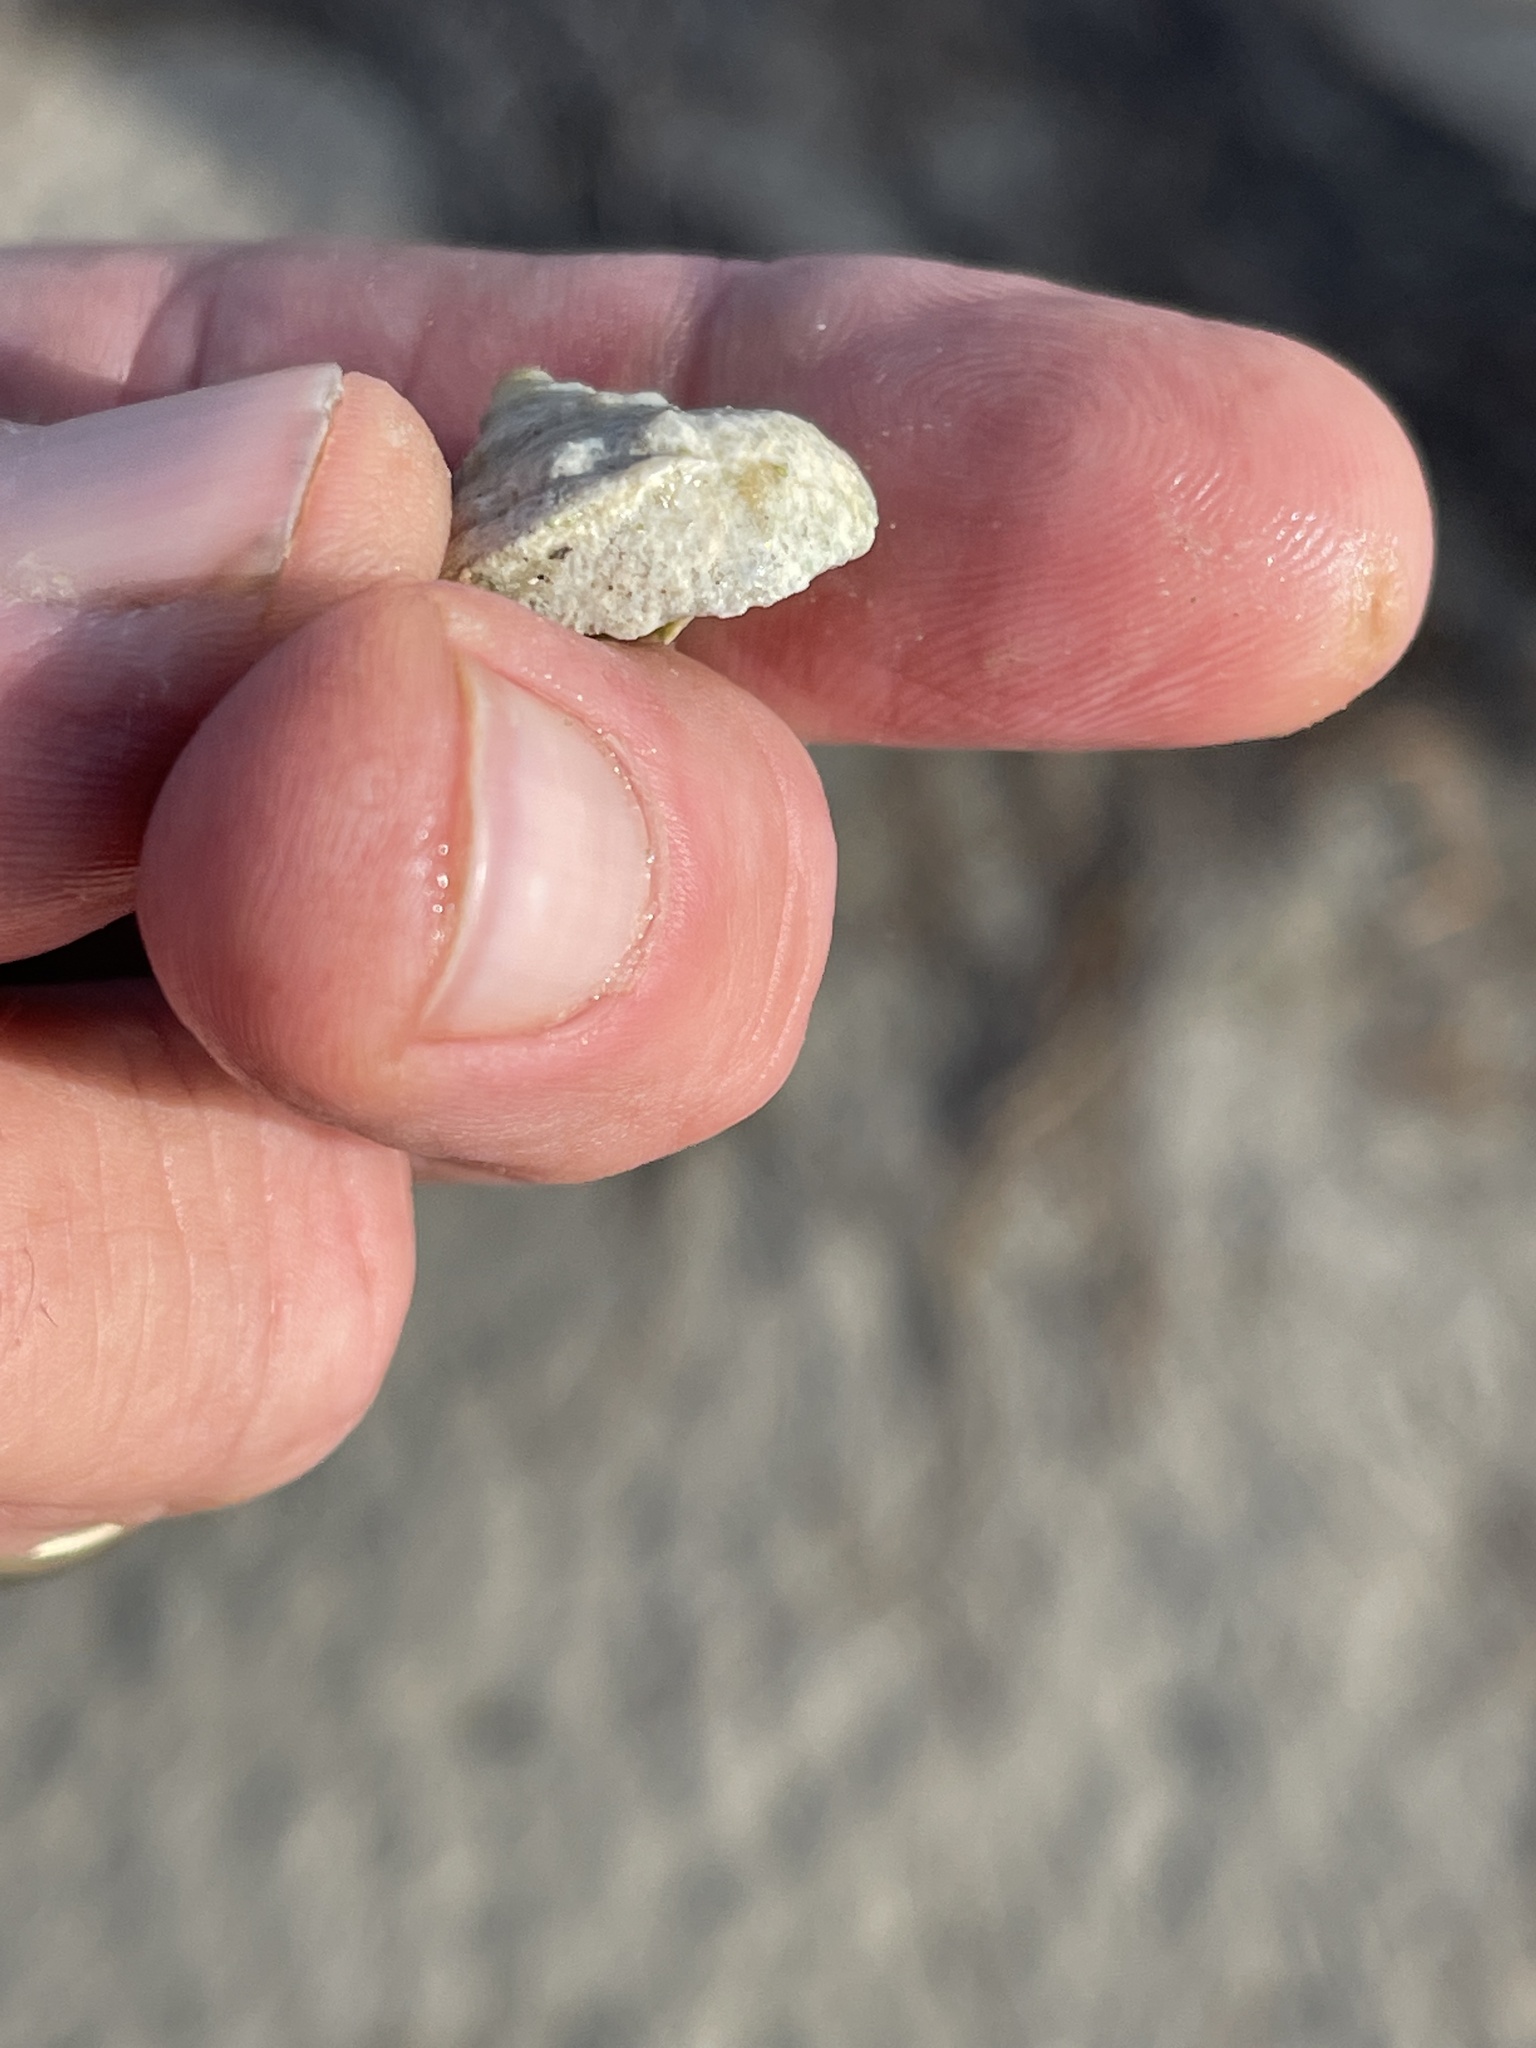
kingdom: Animalia
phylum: Mollusca
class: Gastropoda
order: Neogastropoda
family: Busyconidae
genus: Sinistrofulgur
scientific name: Sinistrofulgur pulleyi
